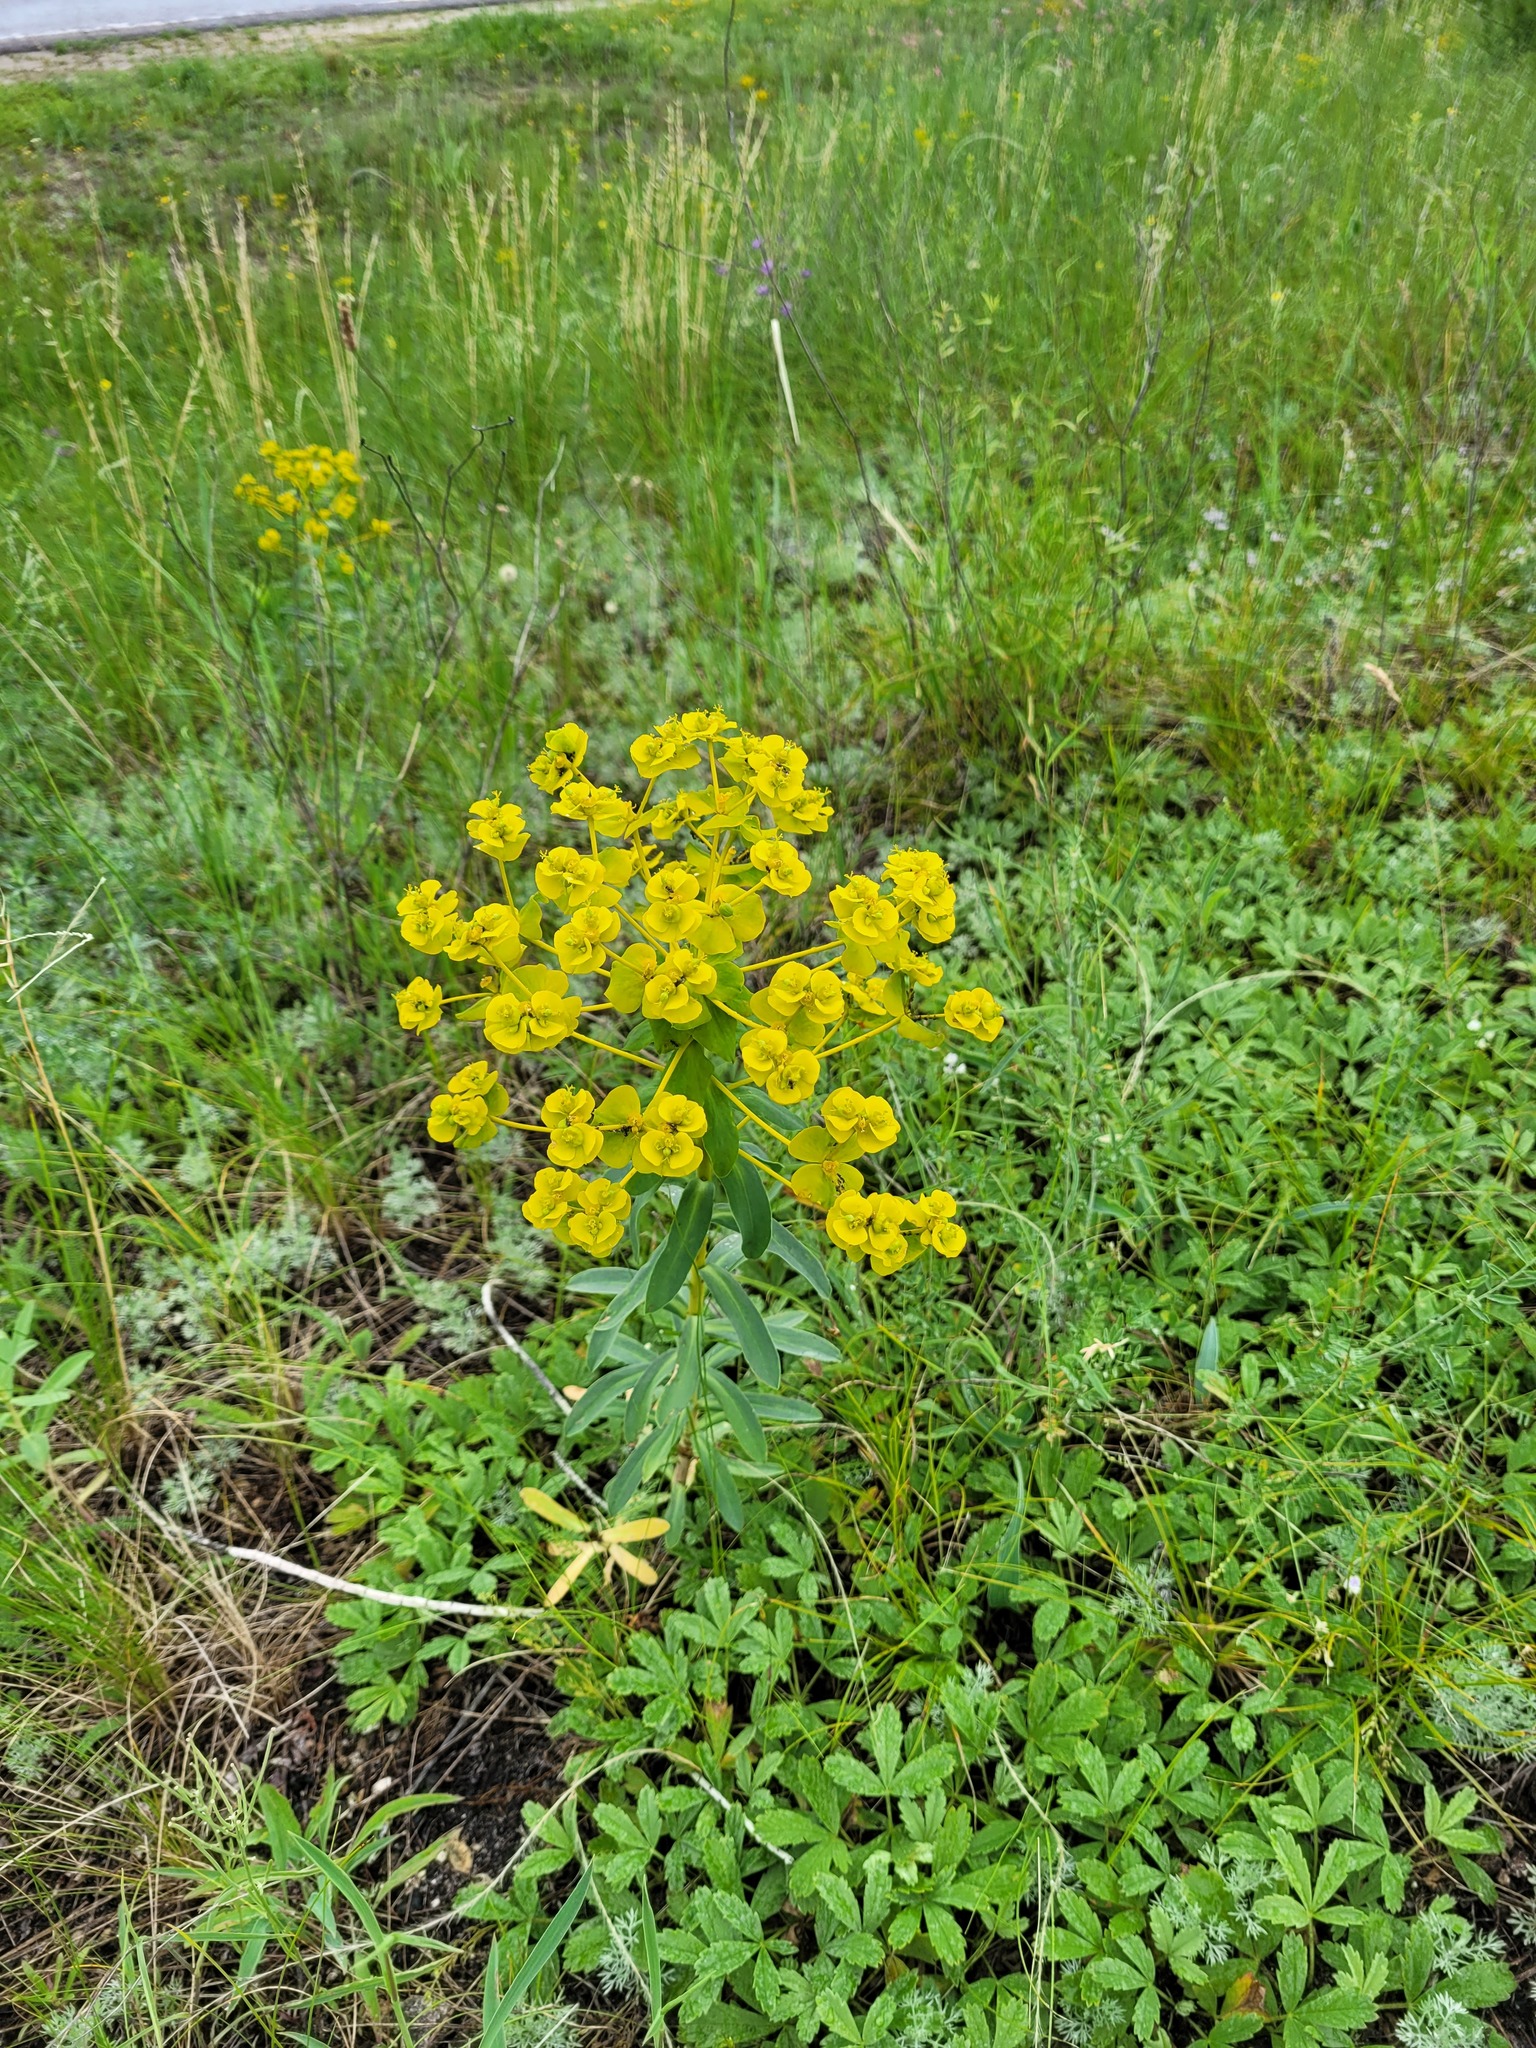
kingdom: Plantae
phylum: Tracheophyta
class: Magnoliopsida
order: Malpighiales
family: Euphorbiaceae
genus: Euphorbia
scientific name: Euphorbia stepposa
